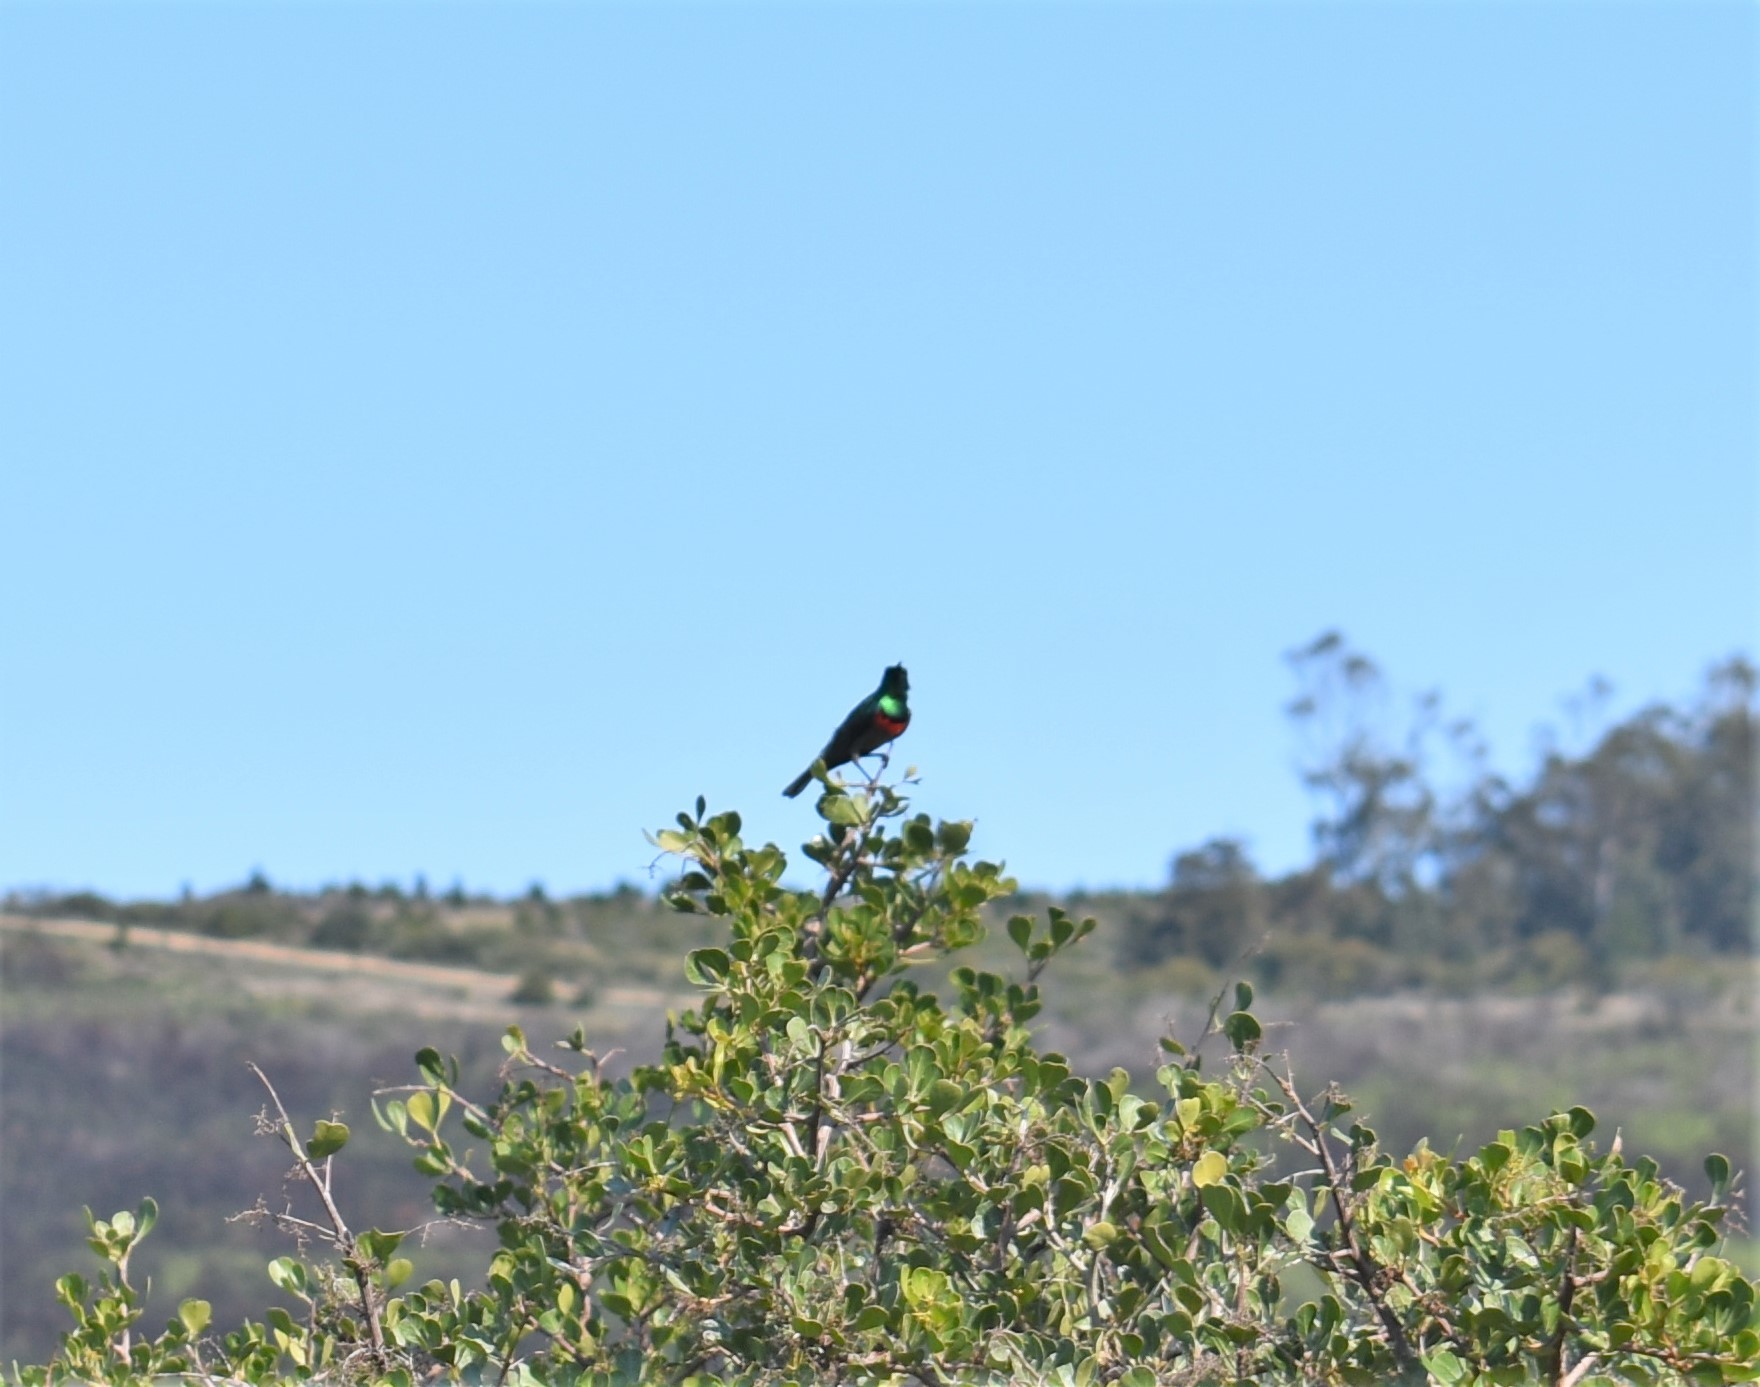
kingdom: Animalia
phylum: Chordata
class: Aves
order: Passeriformes
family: Nectariniidae
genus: Cinnyris
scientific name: Cinnyris chalybeus
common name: Southern double-collared sunbird
